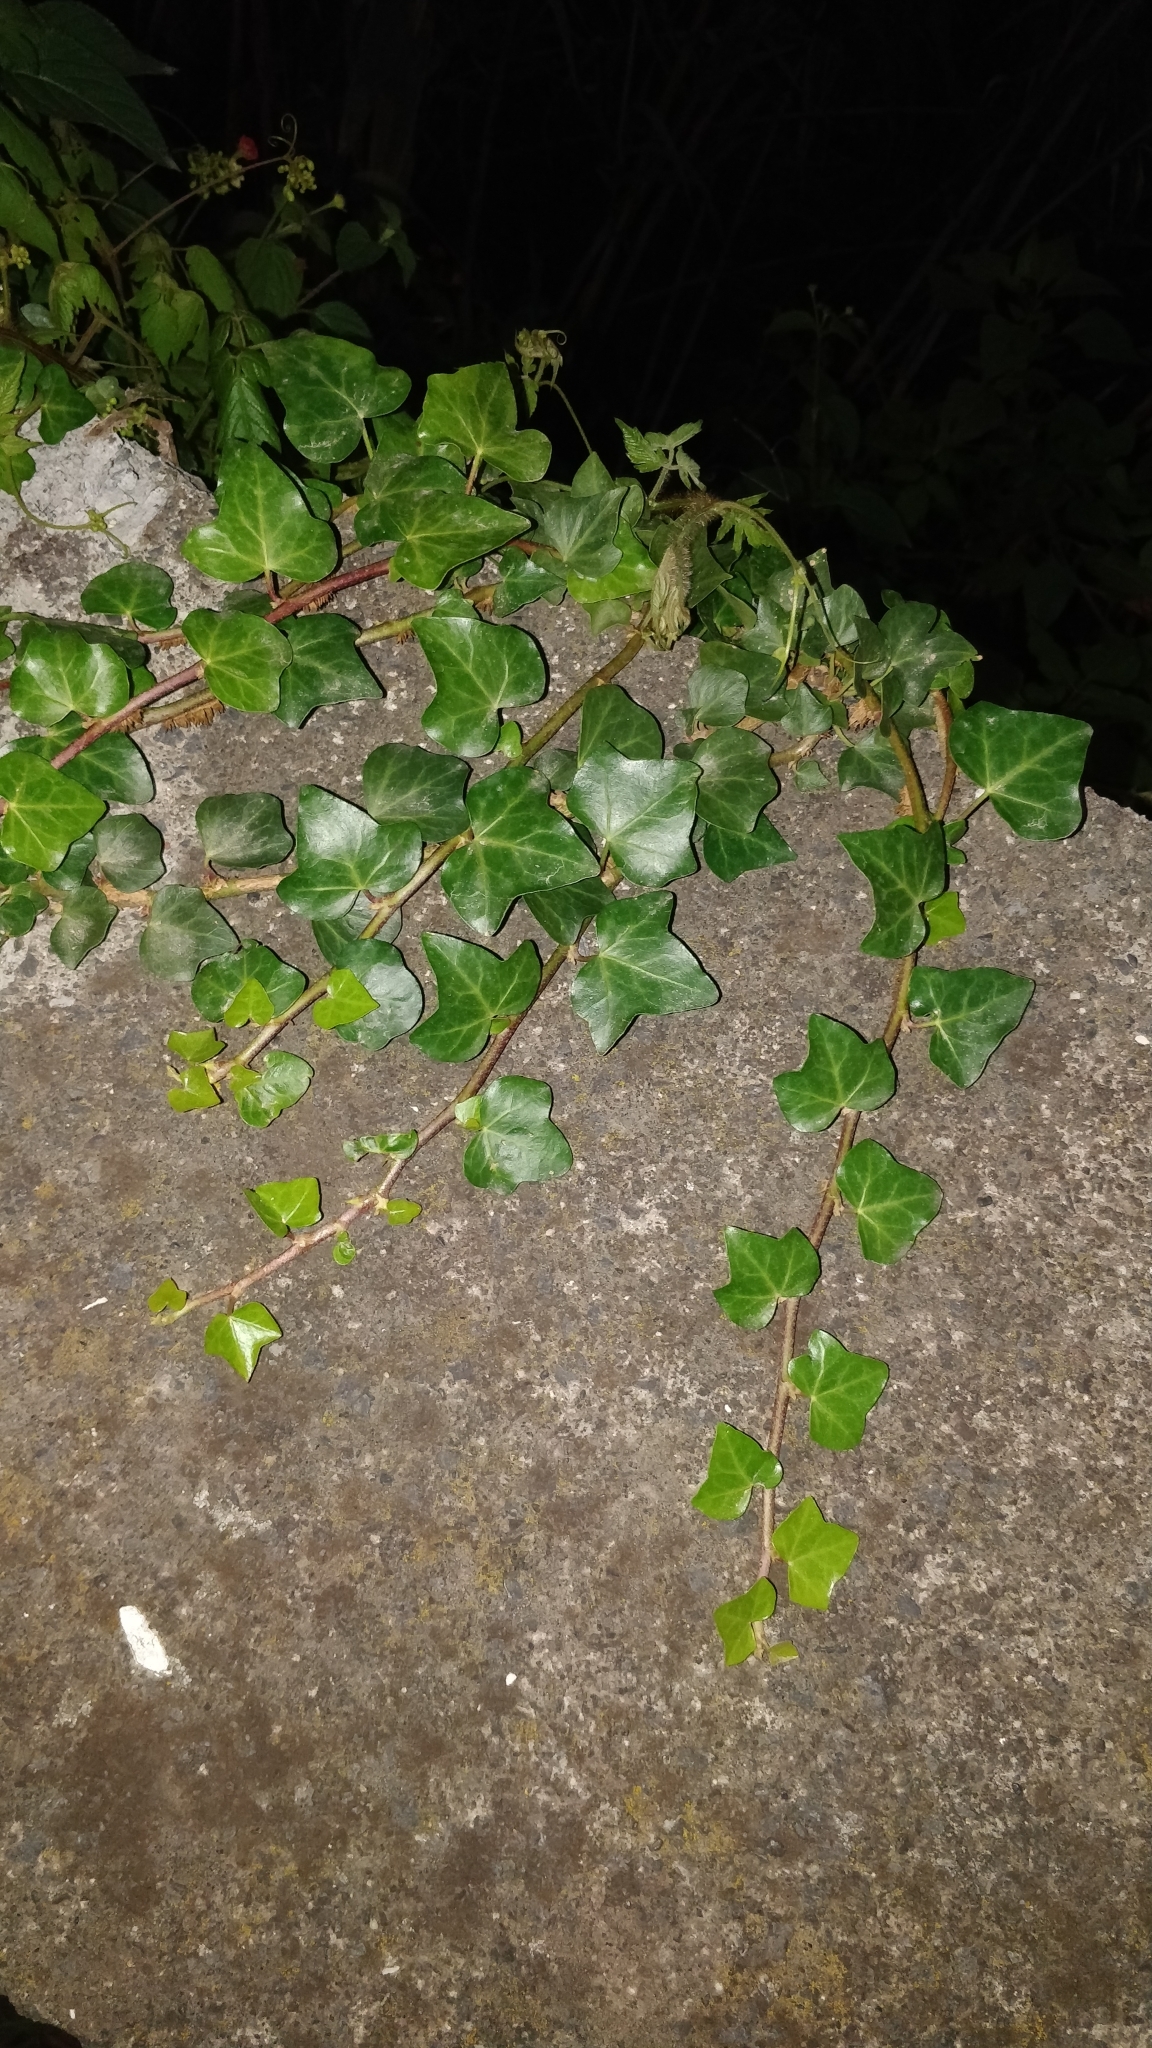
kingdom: Plantae
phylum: Tracheophyta
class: Magnoliopsida
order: Apiales
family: Araliaceae
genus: Hedera
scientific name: Hedera maderensis
